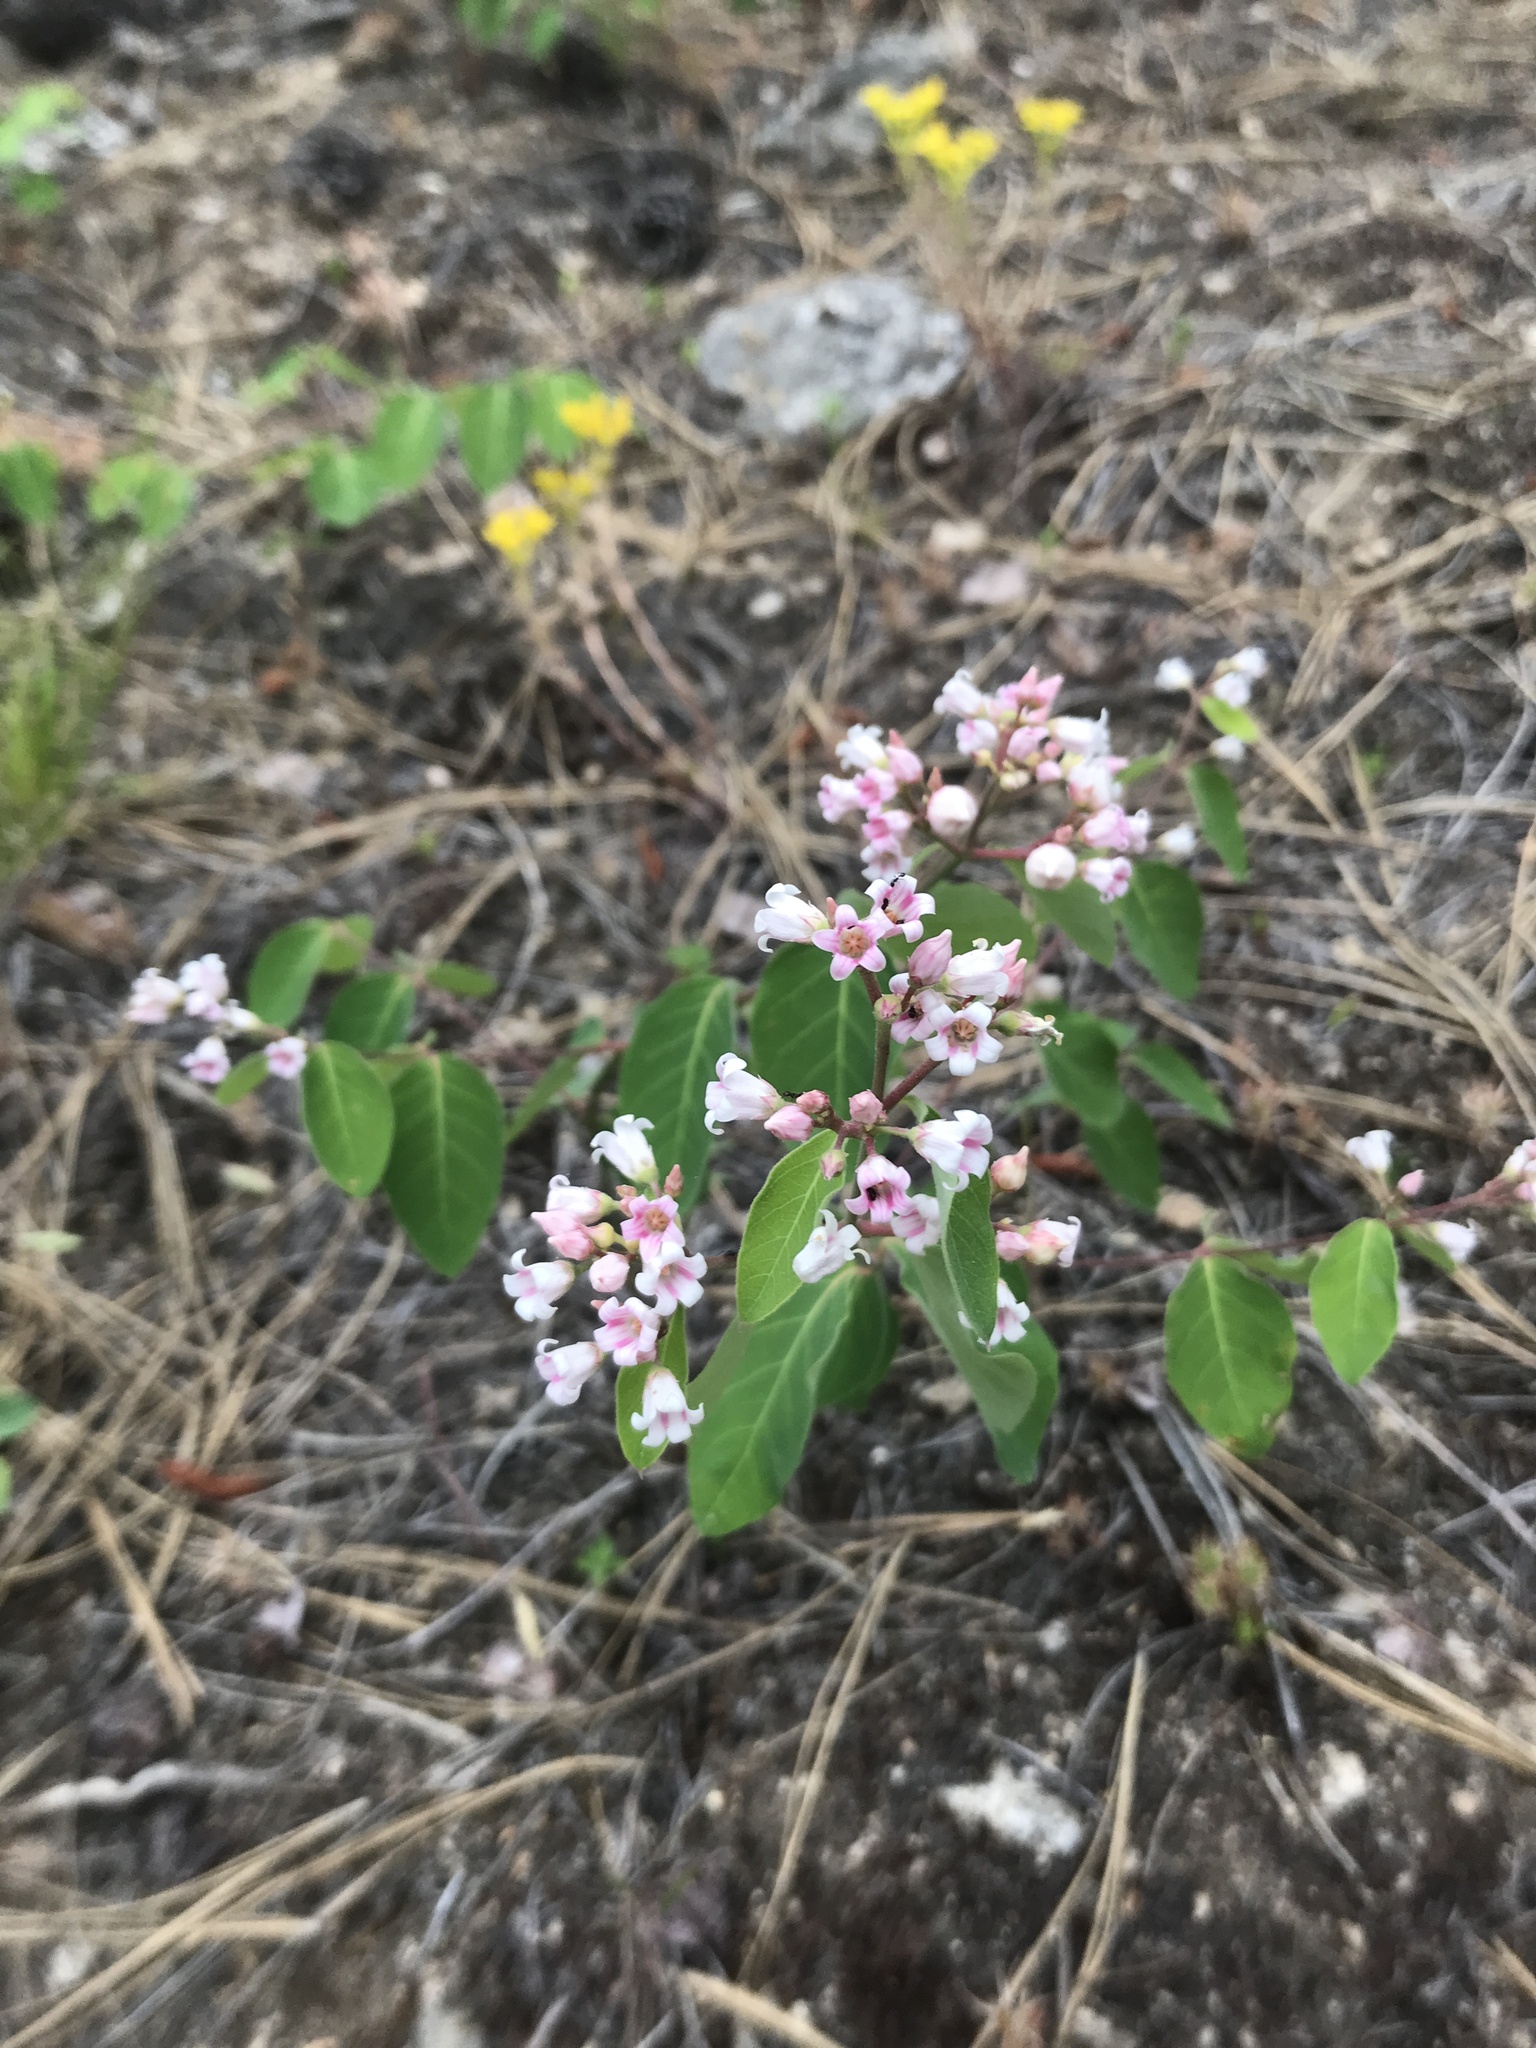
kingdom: Plantae
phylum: Tracheophyta
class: Magnoliopsida
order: Gentianales
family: Apocynaceae
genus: Apocynum
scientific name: Apocynum androsaemifolium
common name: Spreading dogbane
